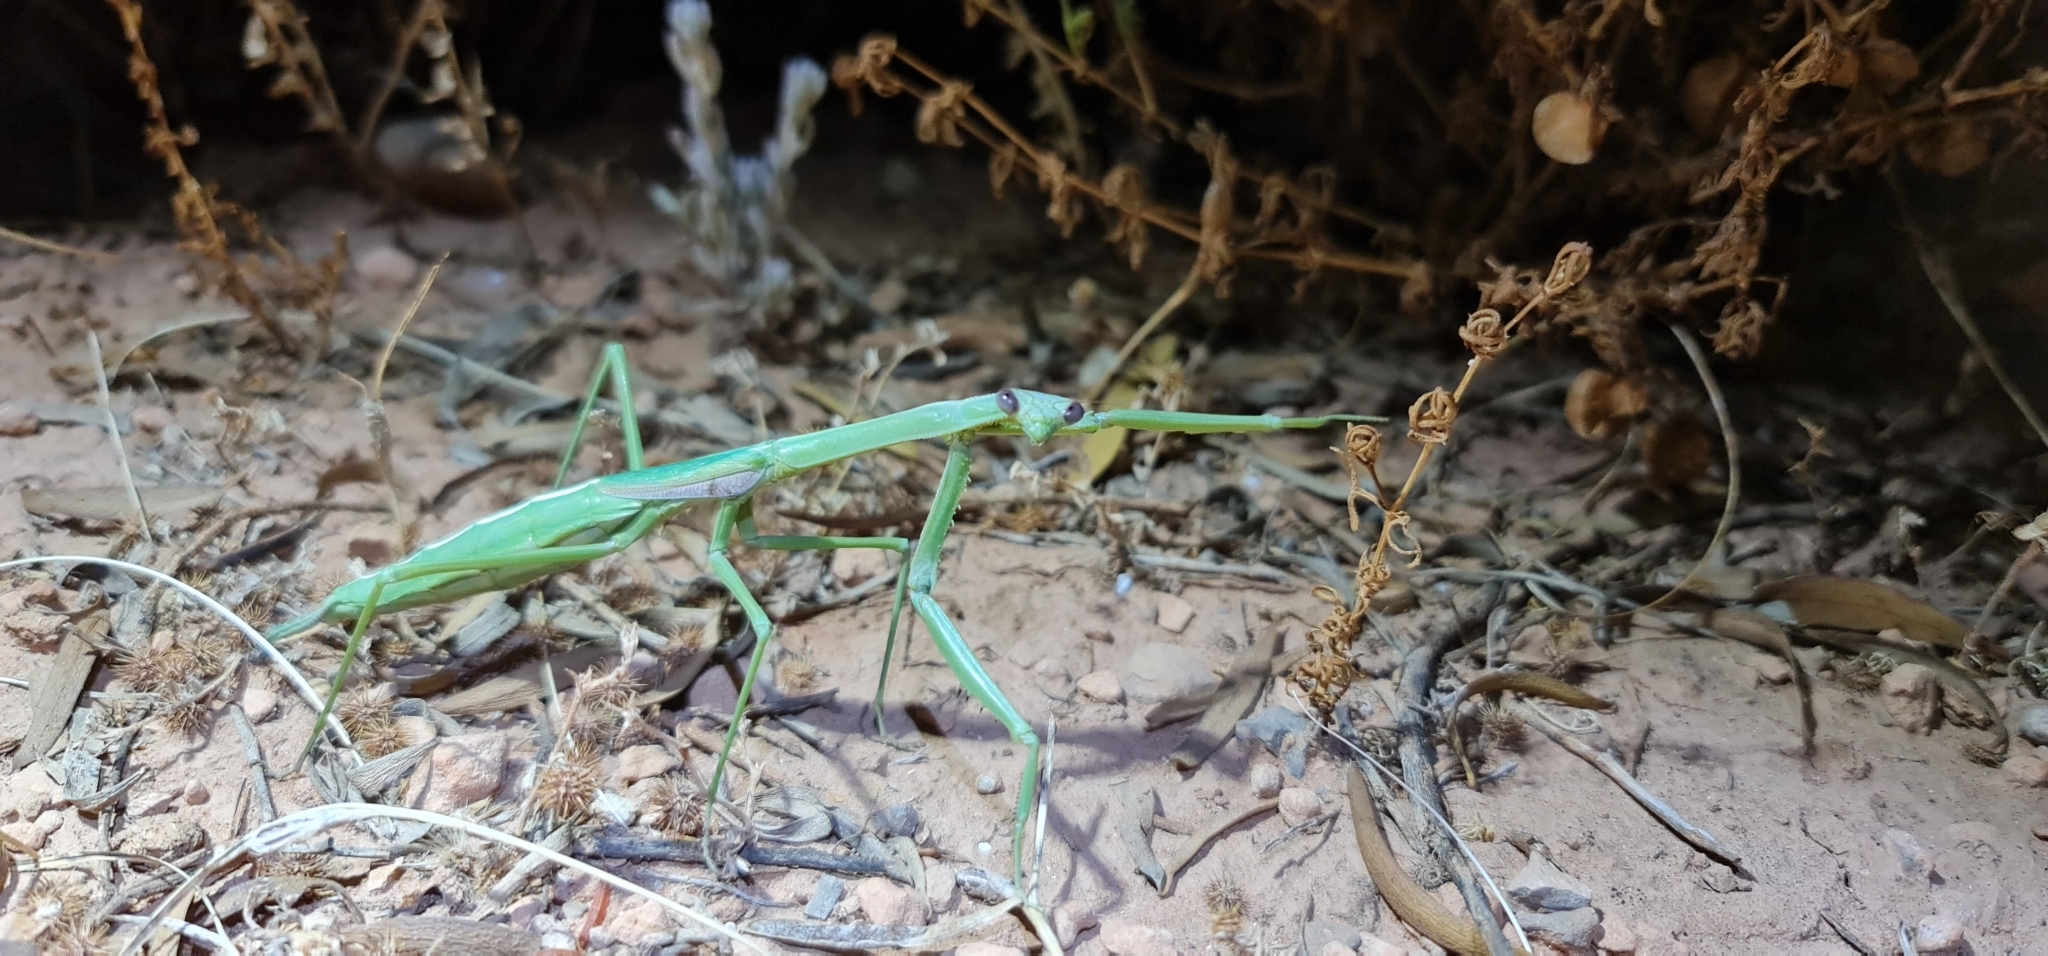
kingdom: Animalia
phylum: Arthropoda
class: Insecta
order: Mantodea
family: Mantidae
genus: Archimantis
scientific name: Archimantis sobrina
